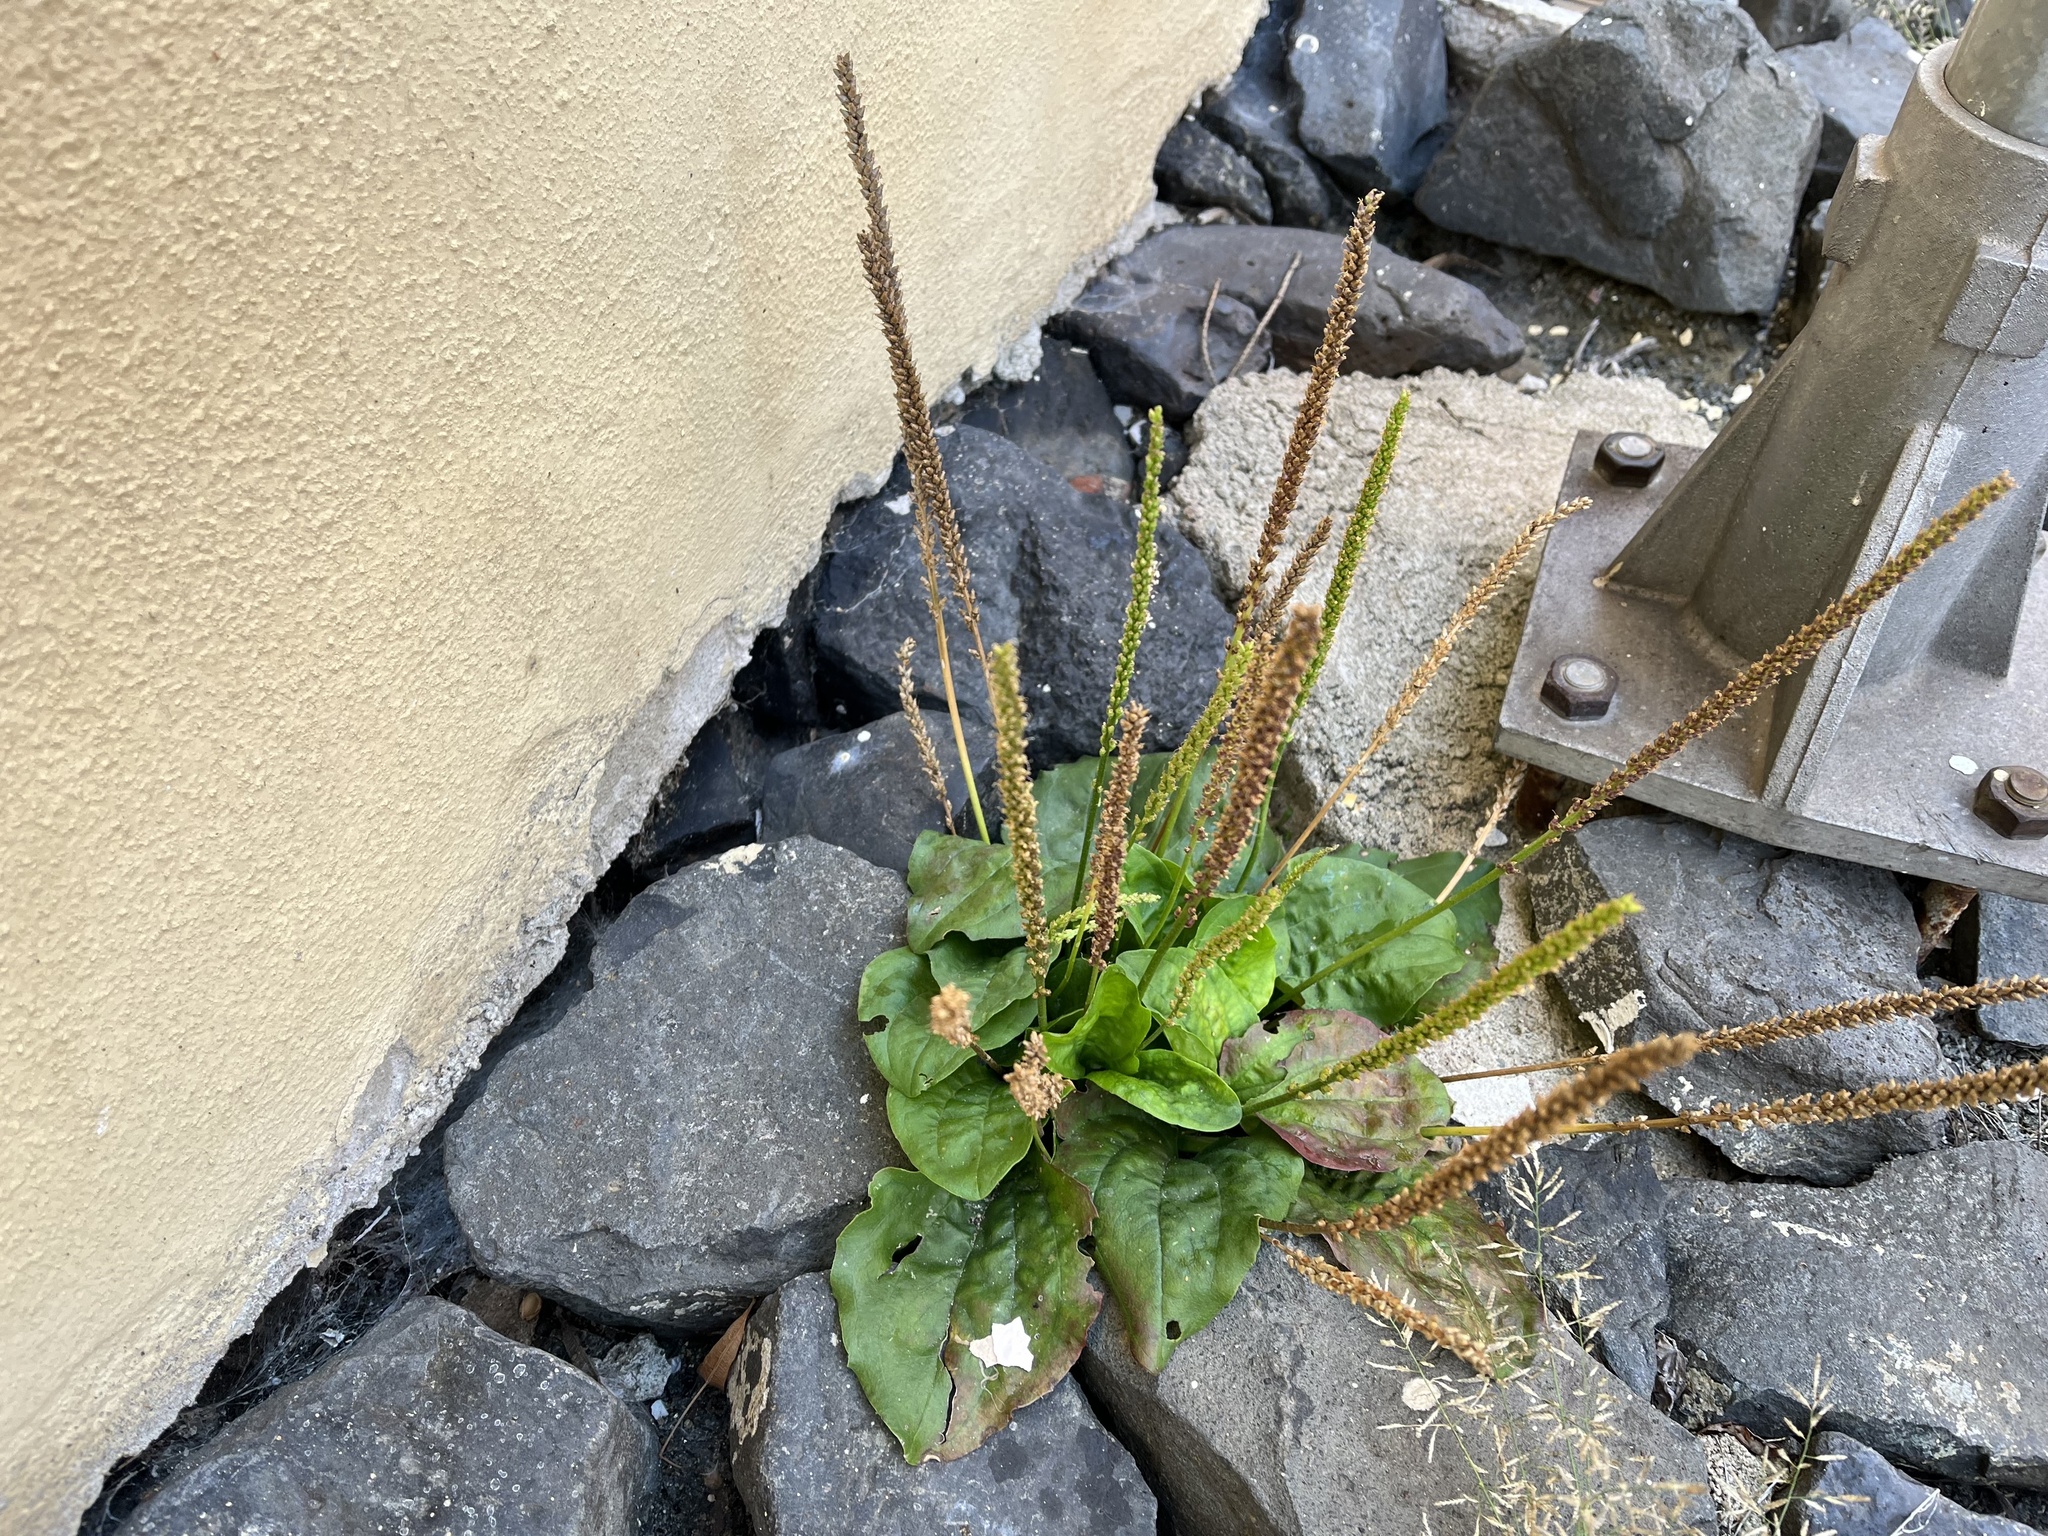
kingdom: Plantae
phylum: Tracheophyta
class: Magnoliopsida
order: Lamiales
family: Plantaginaceae
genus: Plantago
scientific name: Plantago major
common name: Common plantain
